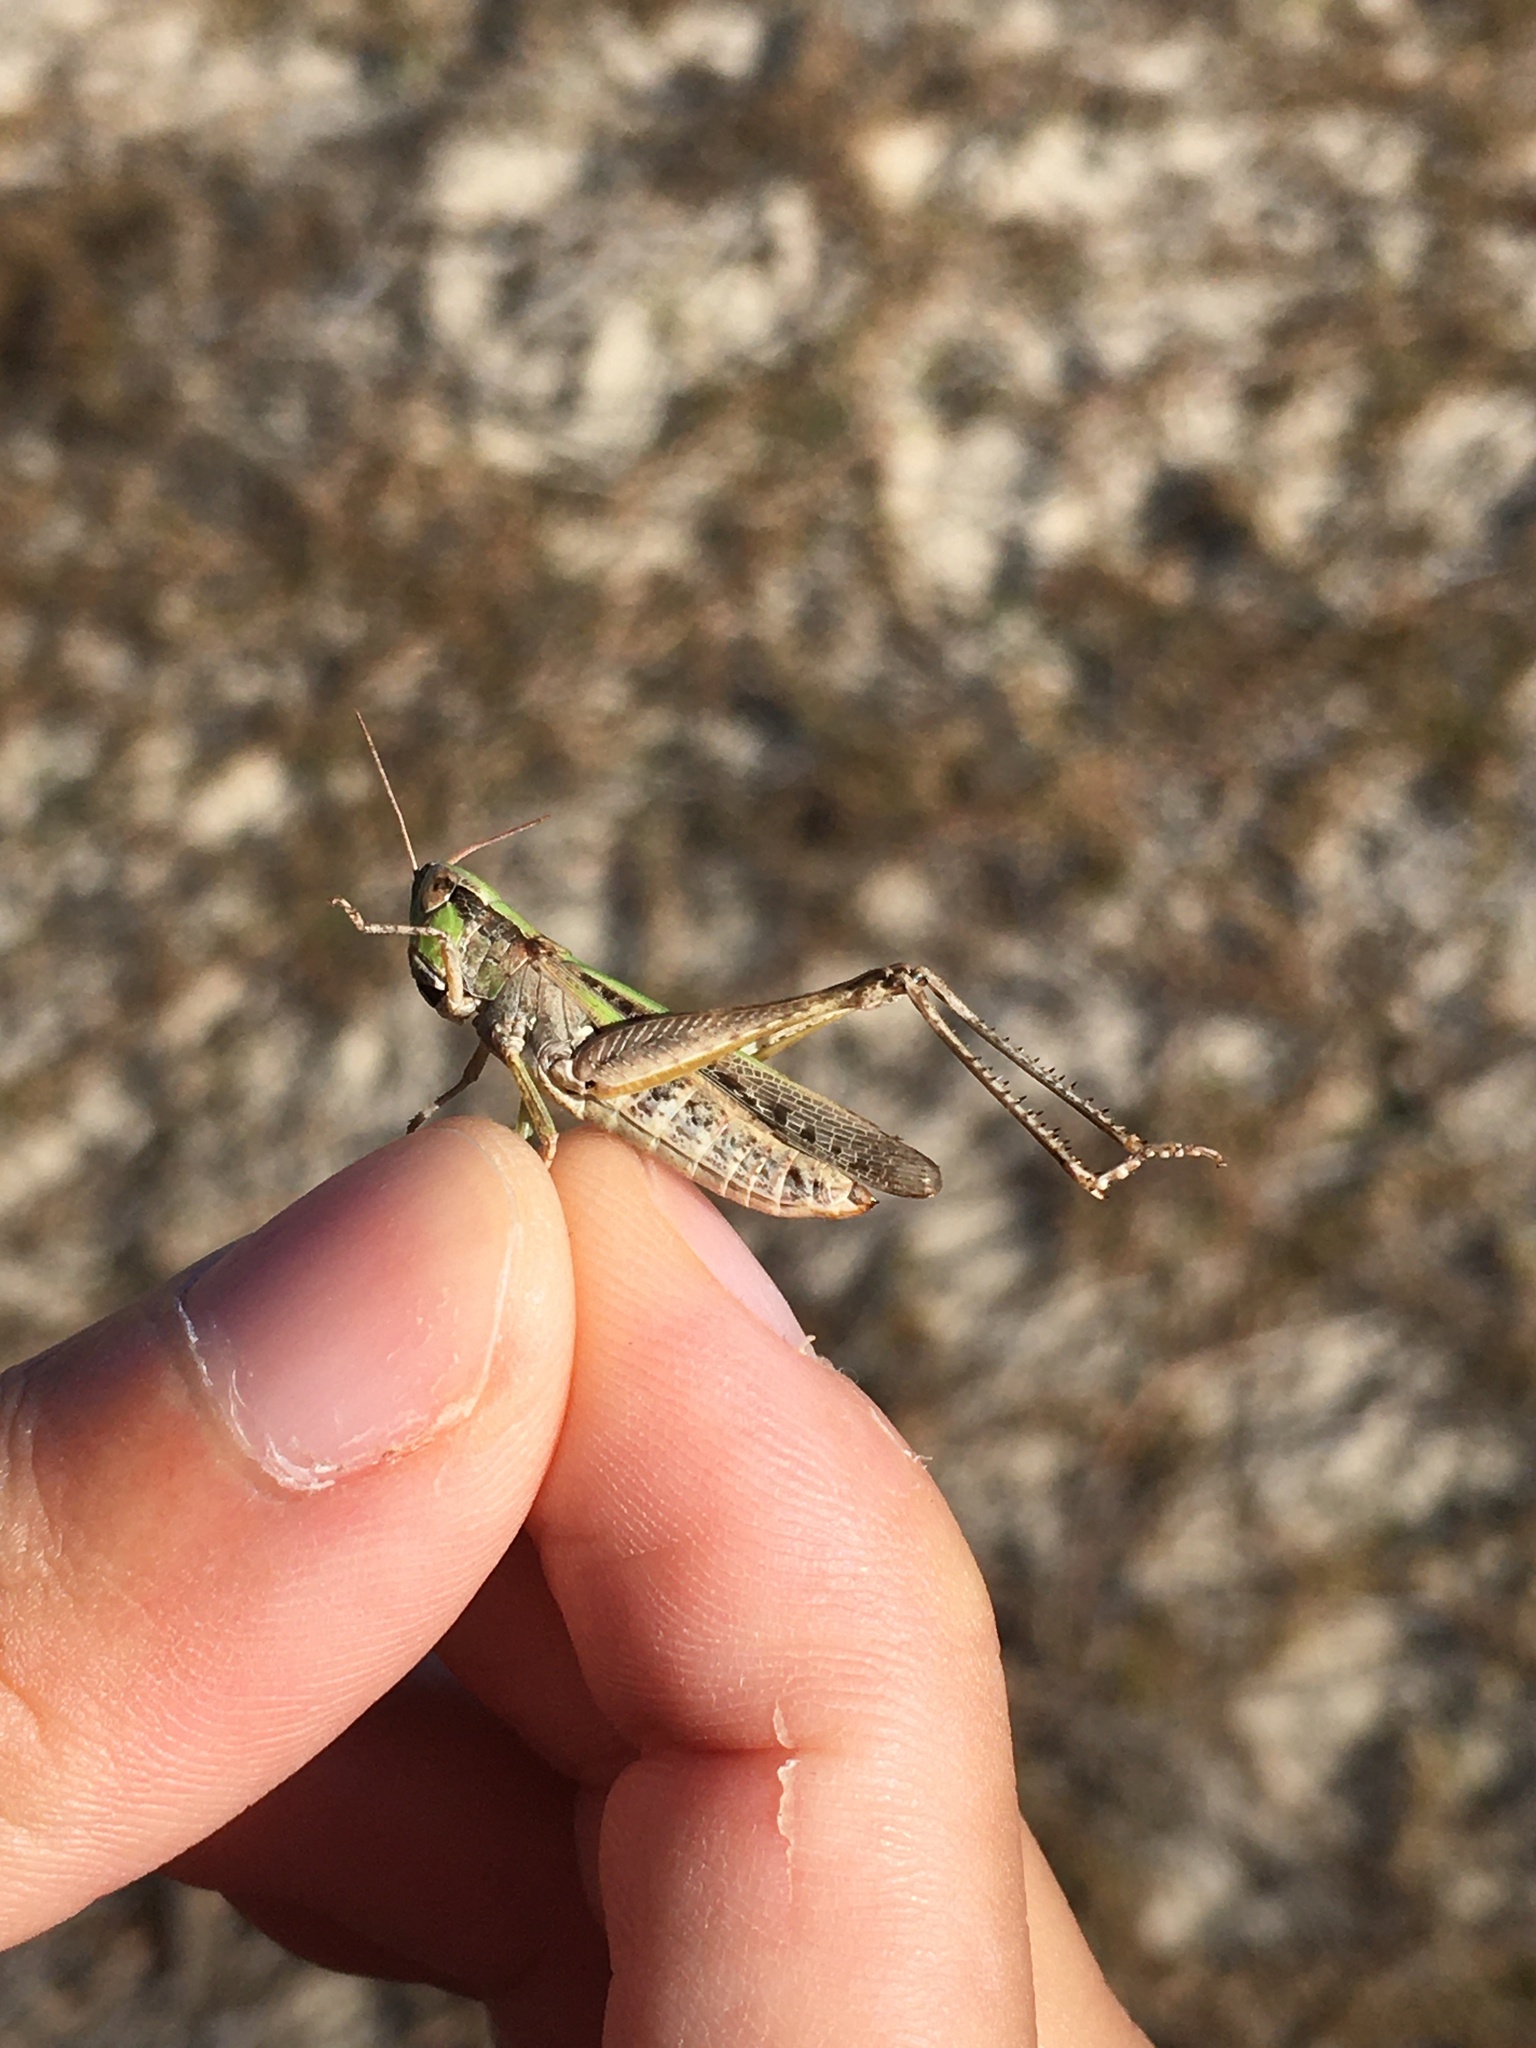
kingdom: Animalia
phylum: Arthropoda
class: Insecta
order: Orthoptera
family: Acrididae
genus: Orphulella
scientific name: Orphulella pelidna
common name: Spotted-wing grasshopper
